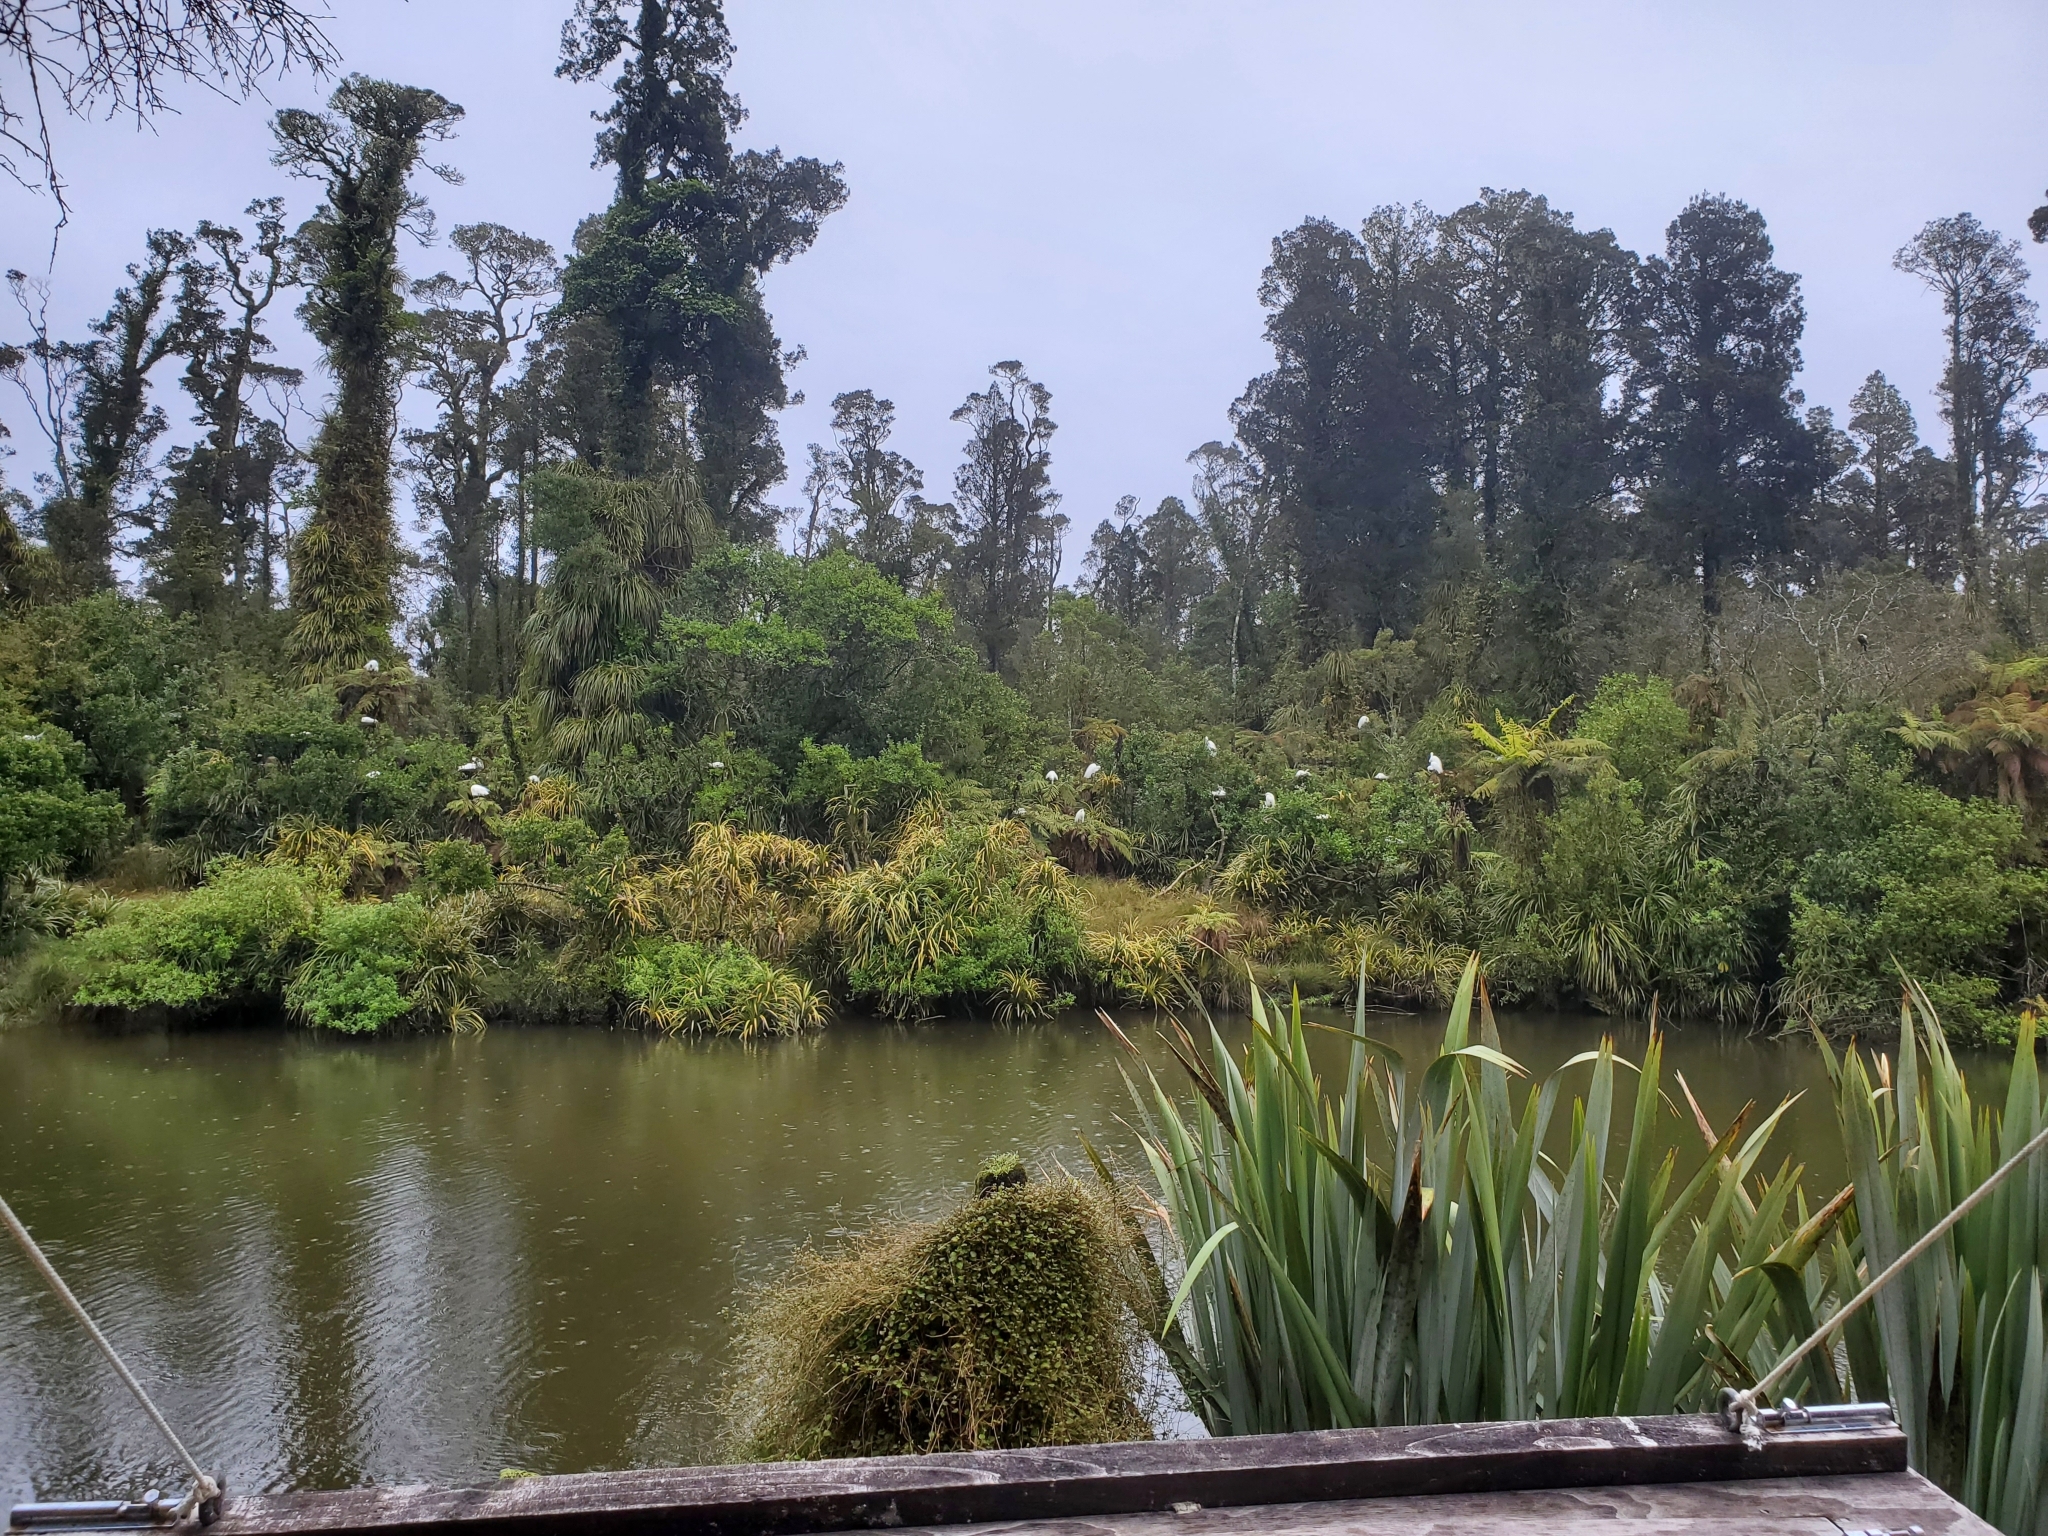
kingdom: Animalia
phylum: Chordata
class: Aves
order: Pelecaniformes
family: Ardeidae
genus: Ardea
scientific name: Ardea modesta
